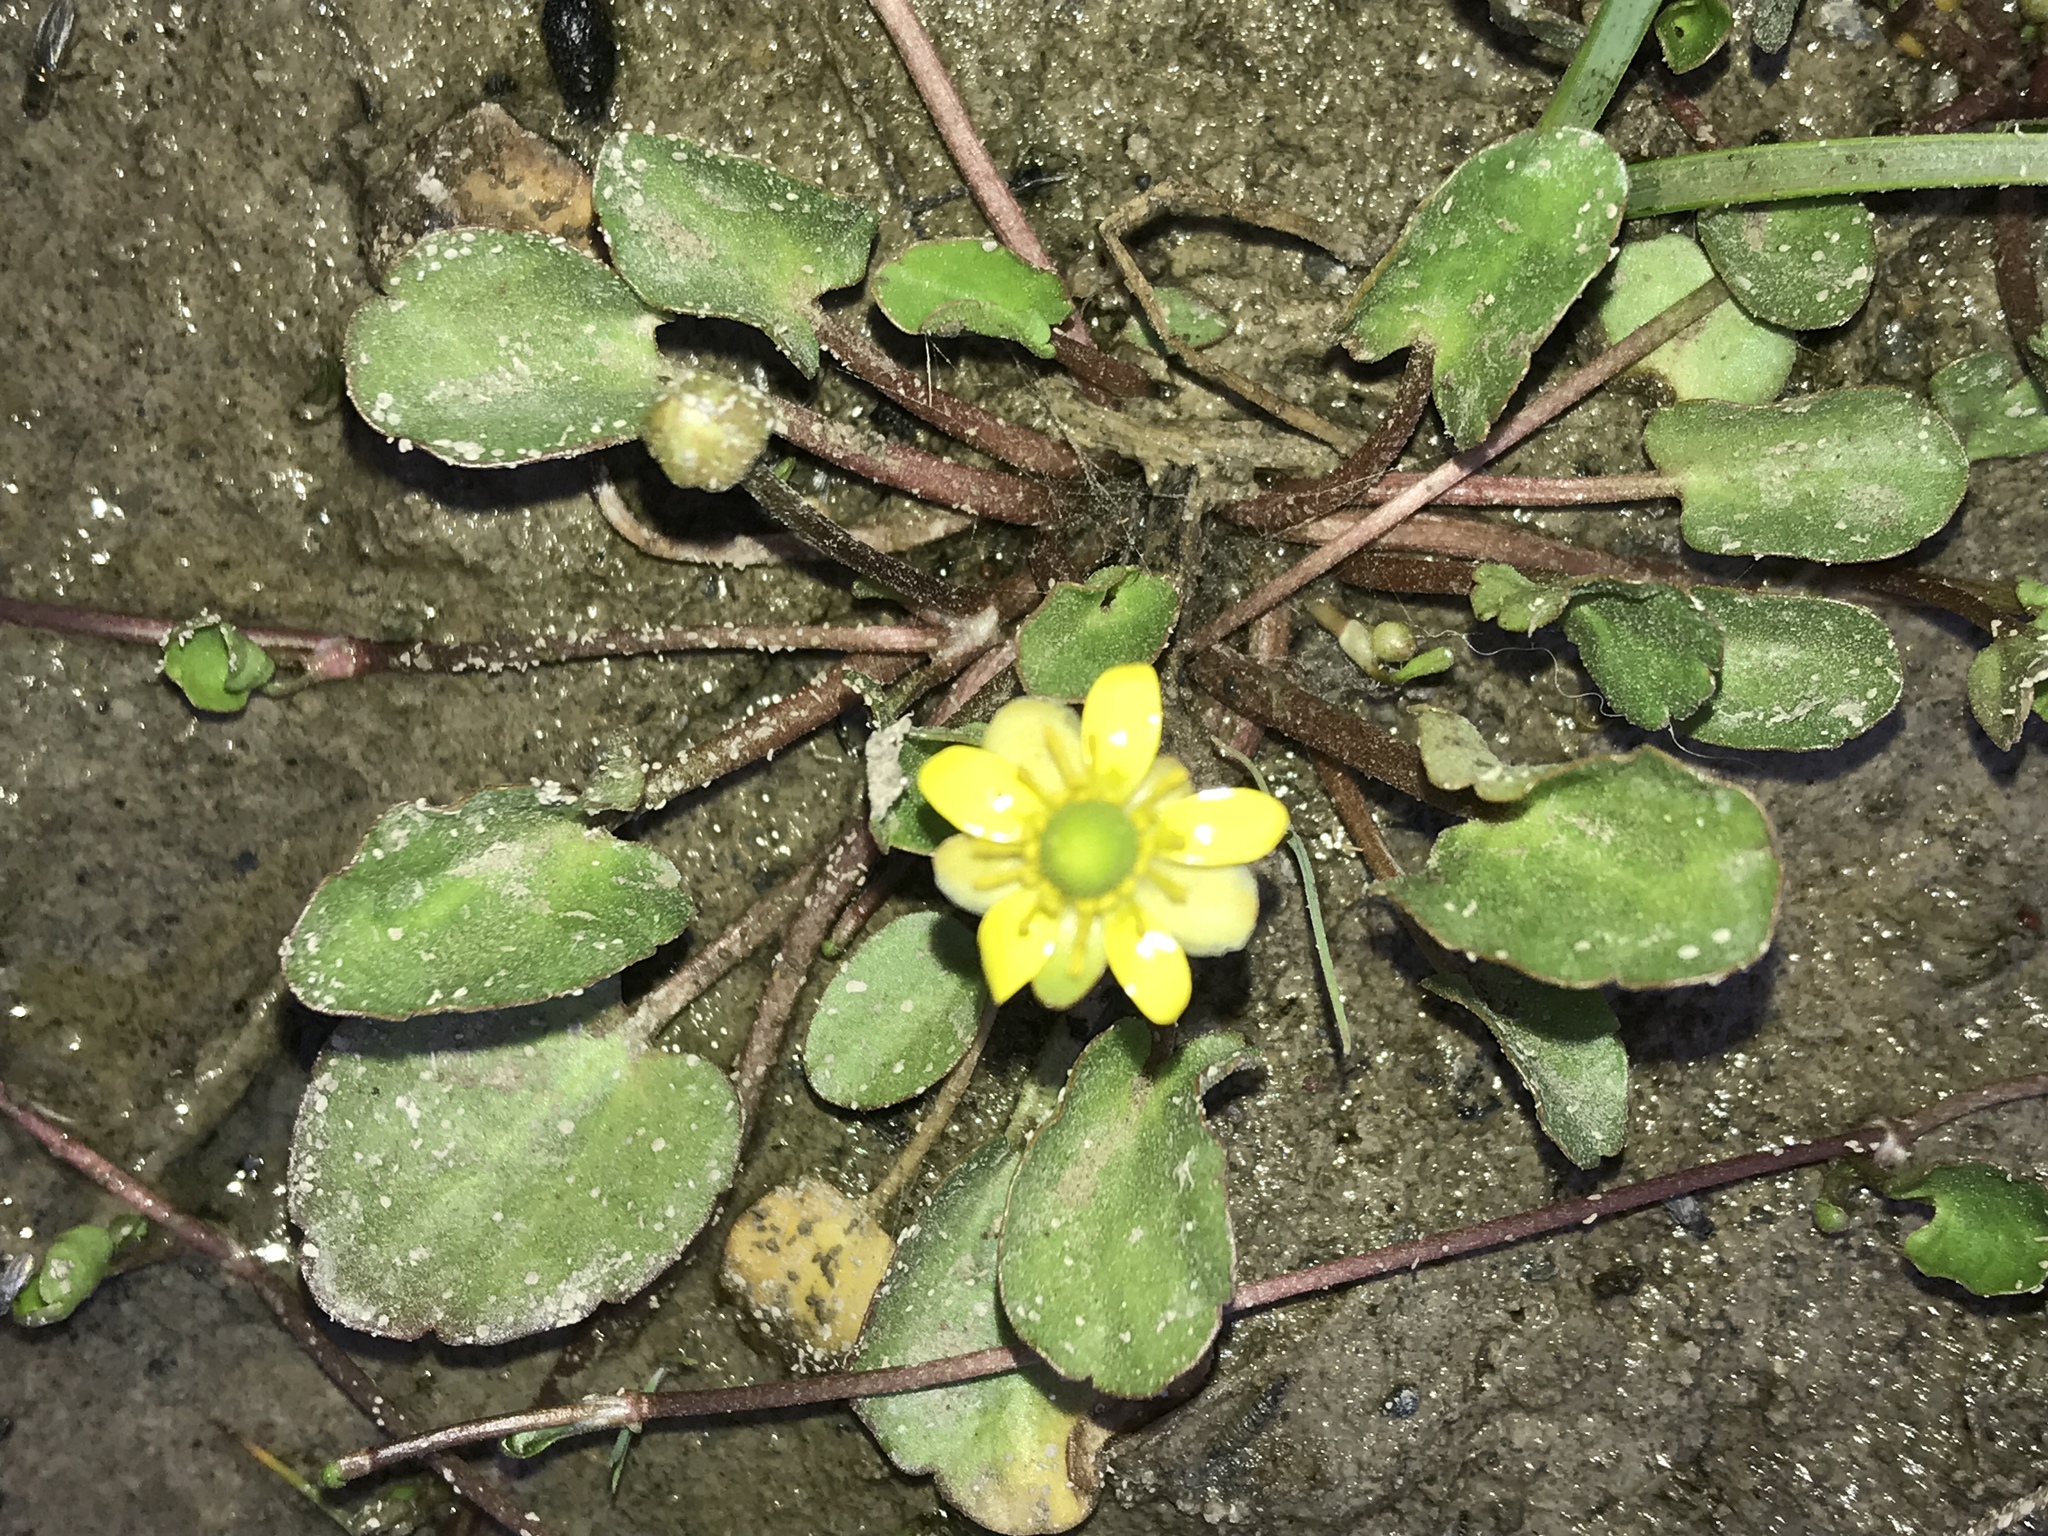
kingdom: Plantae
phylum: Tracheophyta
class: Magnoliopsida
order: Ranunculales
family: Ranunculaceae
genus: Halerpestes
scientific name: Halerpestes cymbalaria
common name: Seaside crowfoot
